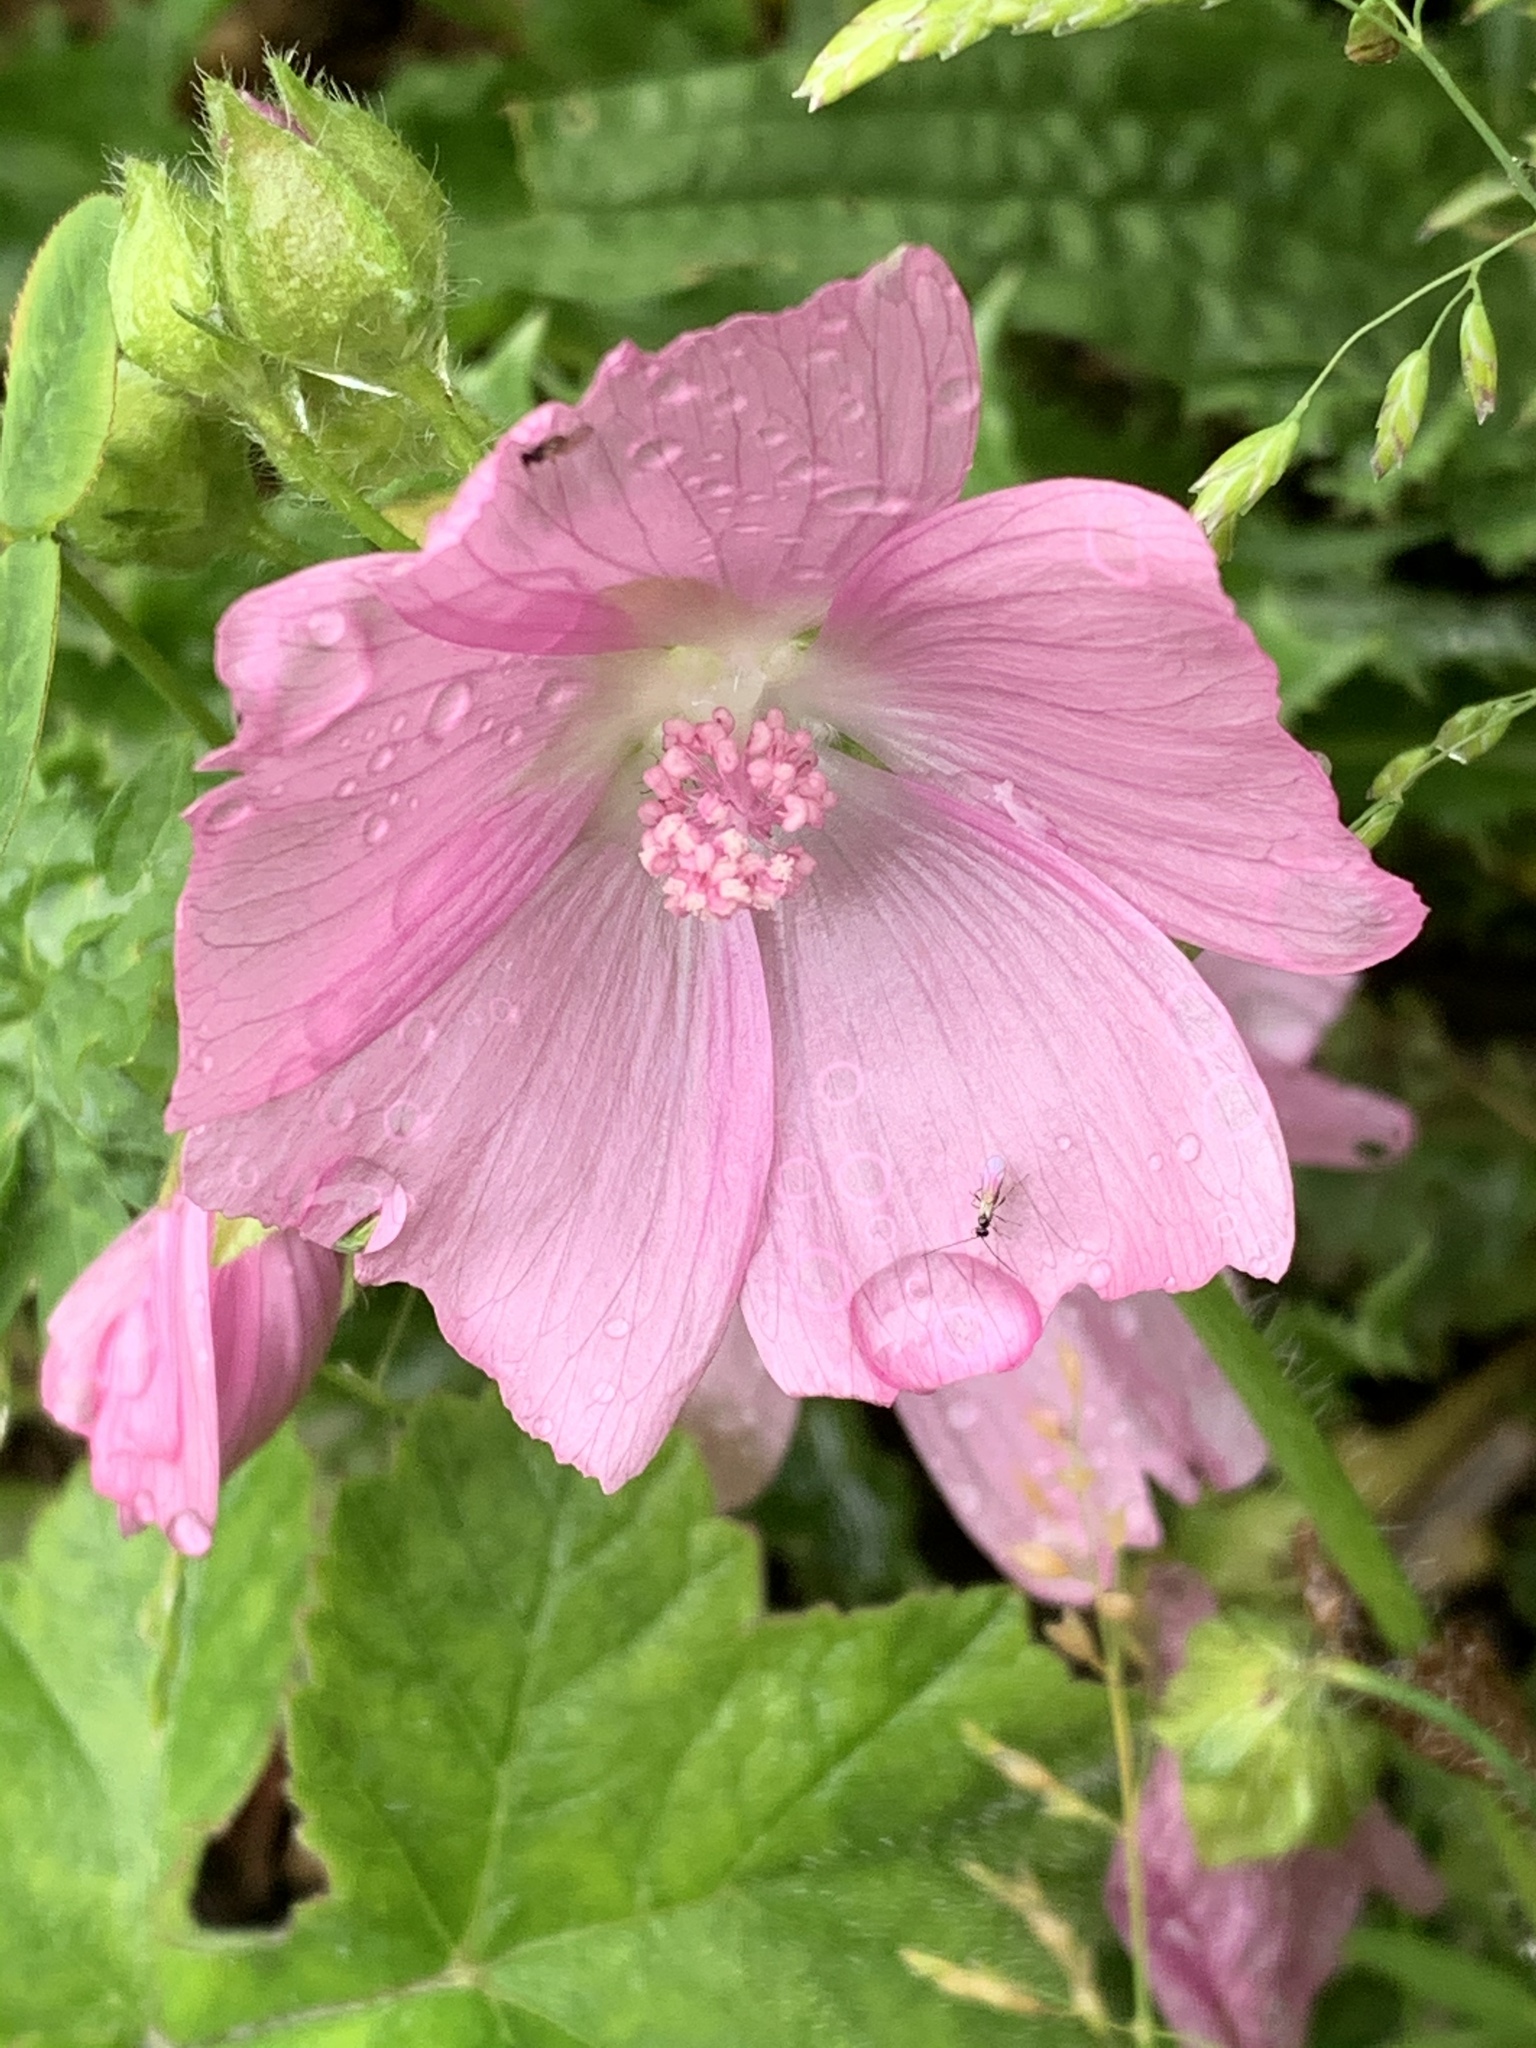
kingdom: Plantae
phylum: Tracheophyta
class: Magnoliopsida
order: Malvales
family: Malvaceae
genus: Malva
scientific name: Malva moschata
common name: Musk mallow
